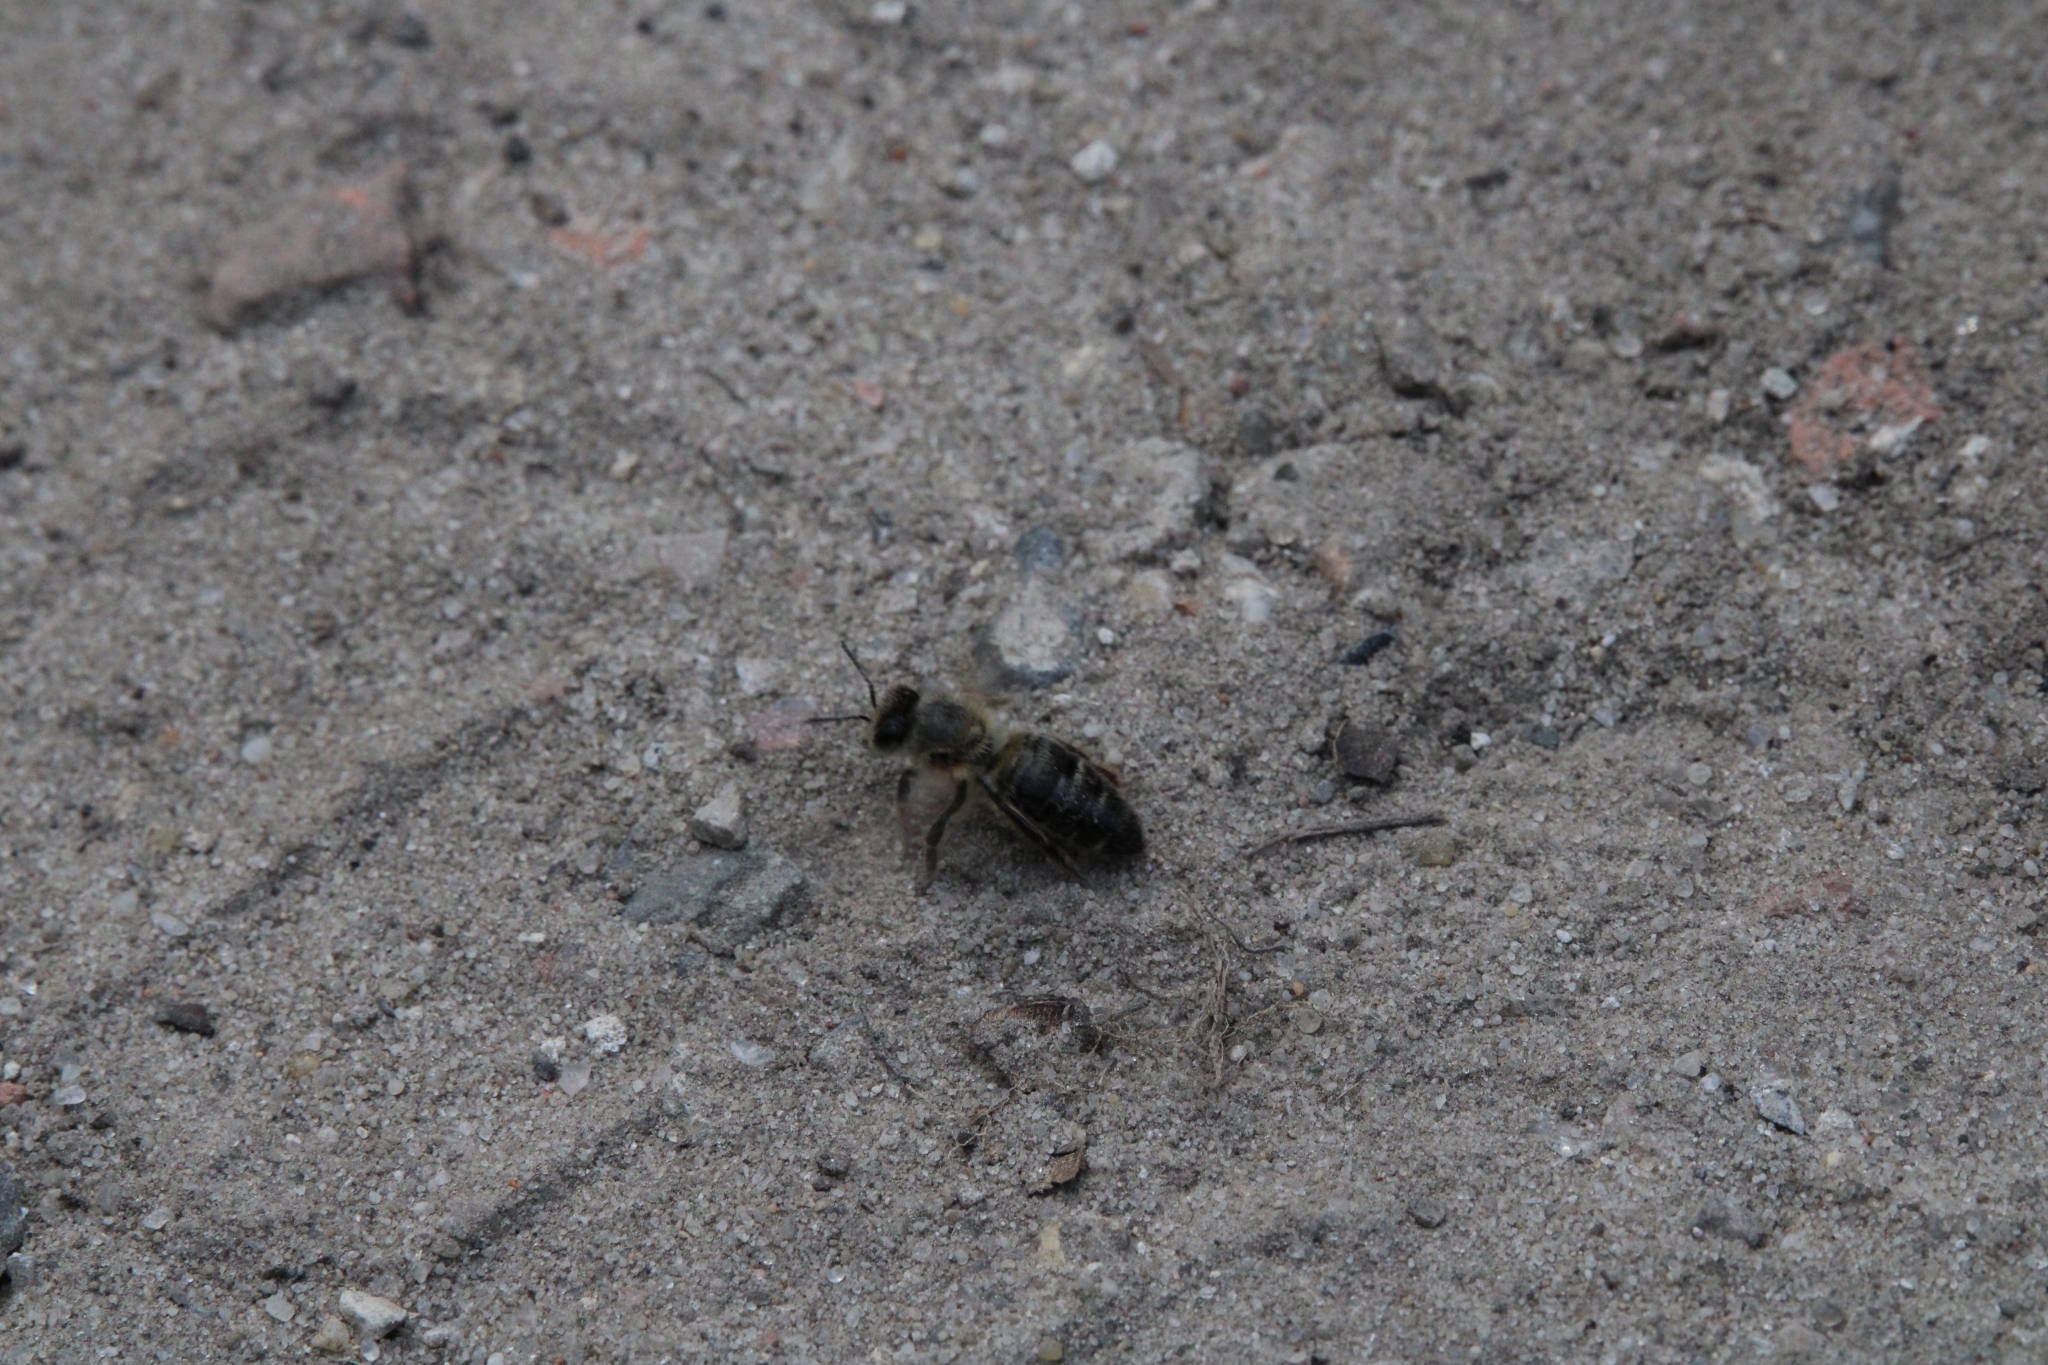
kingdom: Animalia
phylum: Arthropoda
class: Insecta
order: Hymenoptera
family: Apidae
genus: Apis
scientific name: Apis mellifera
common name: Honey bee
